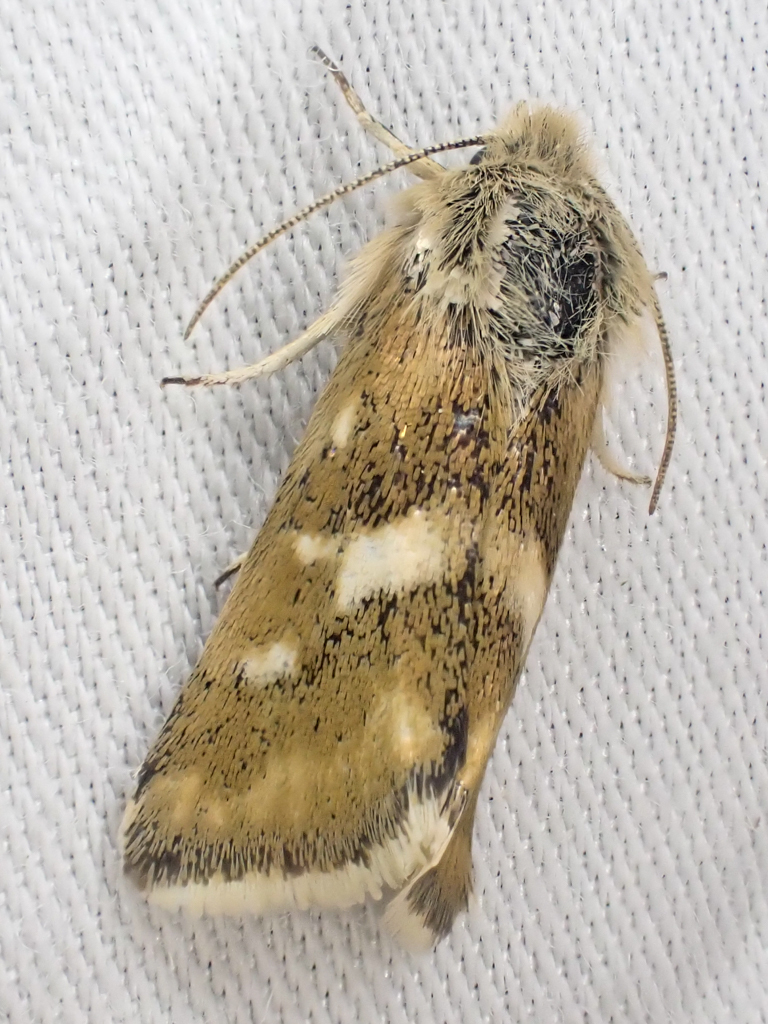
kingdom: Animalia
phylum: Arthropoda
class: Insecta
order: Lepidoptera
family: Noctuidae
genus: Heliothodes
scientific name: Heliothodes diminutiva
